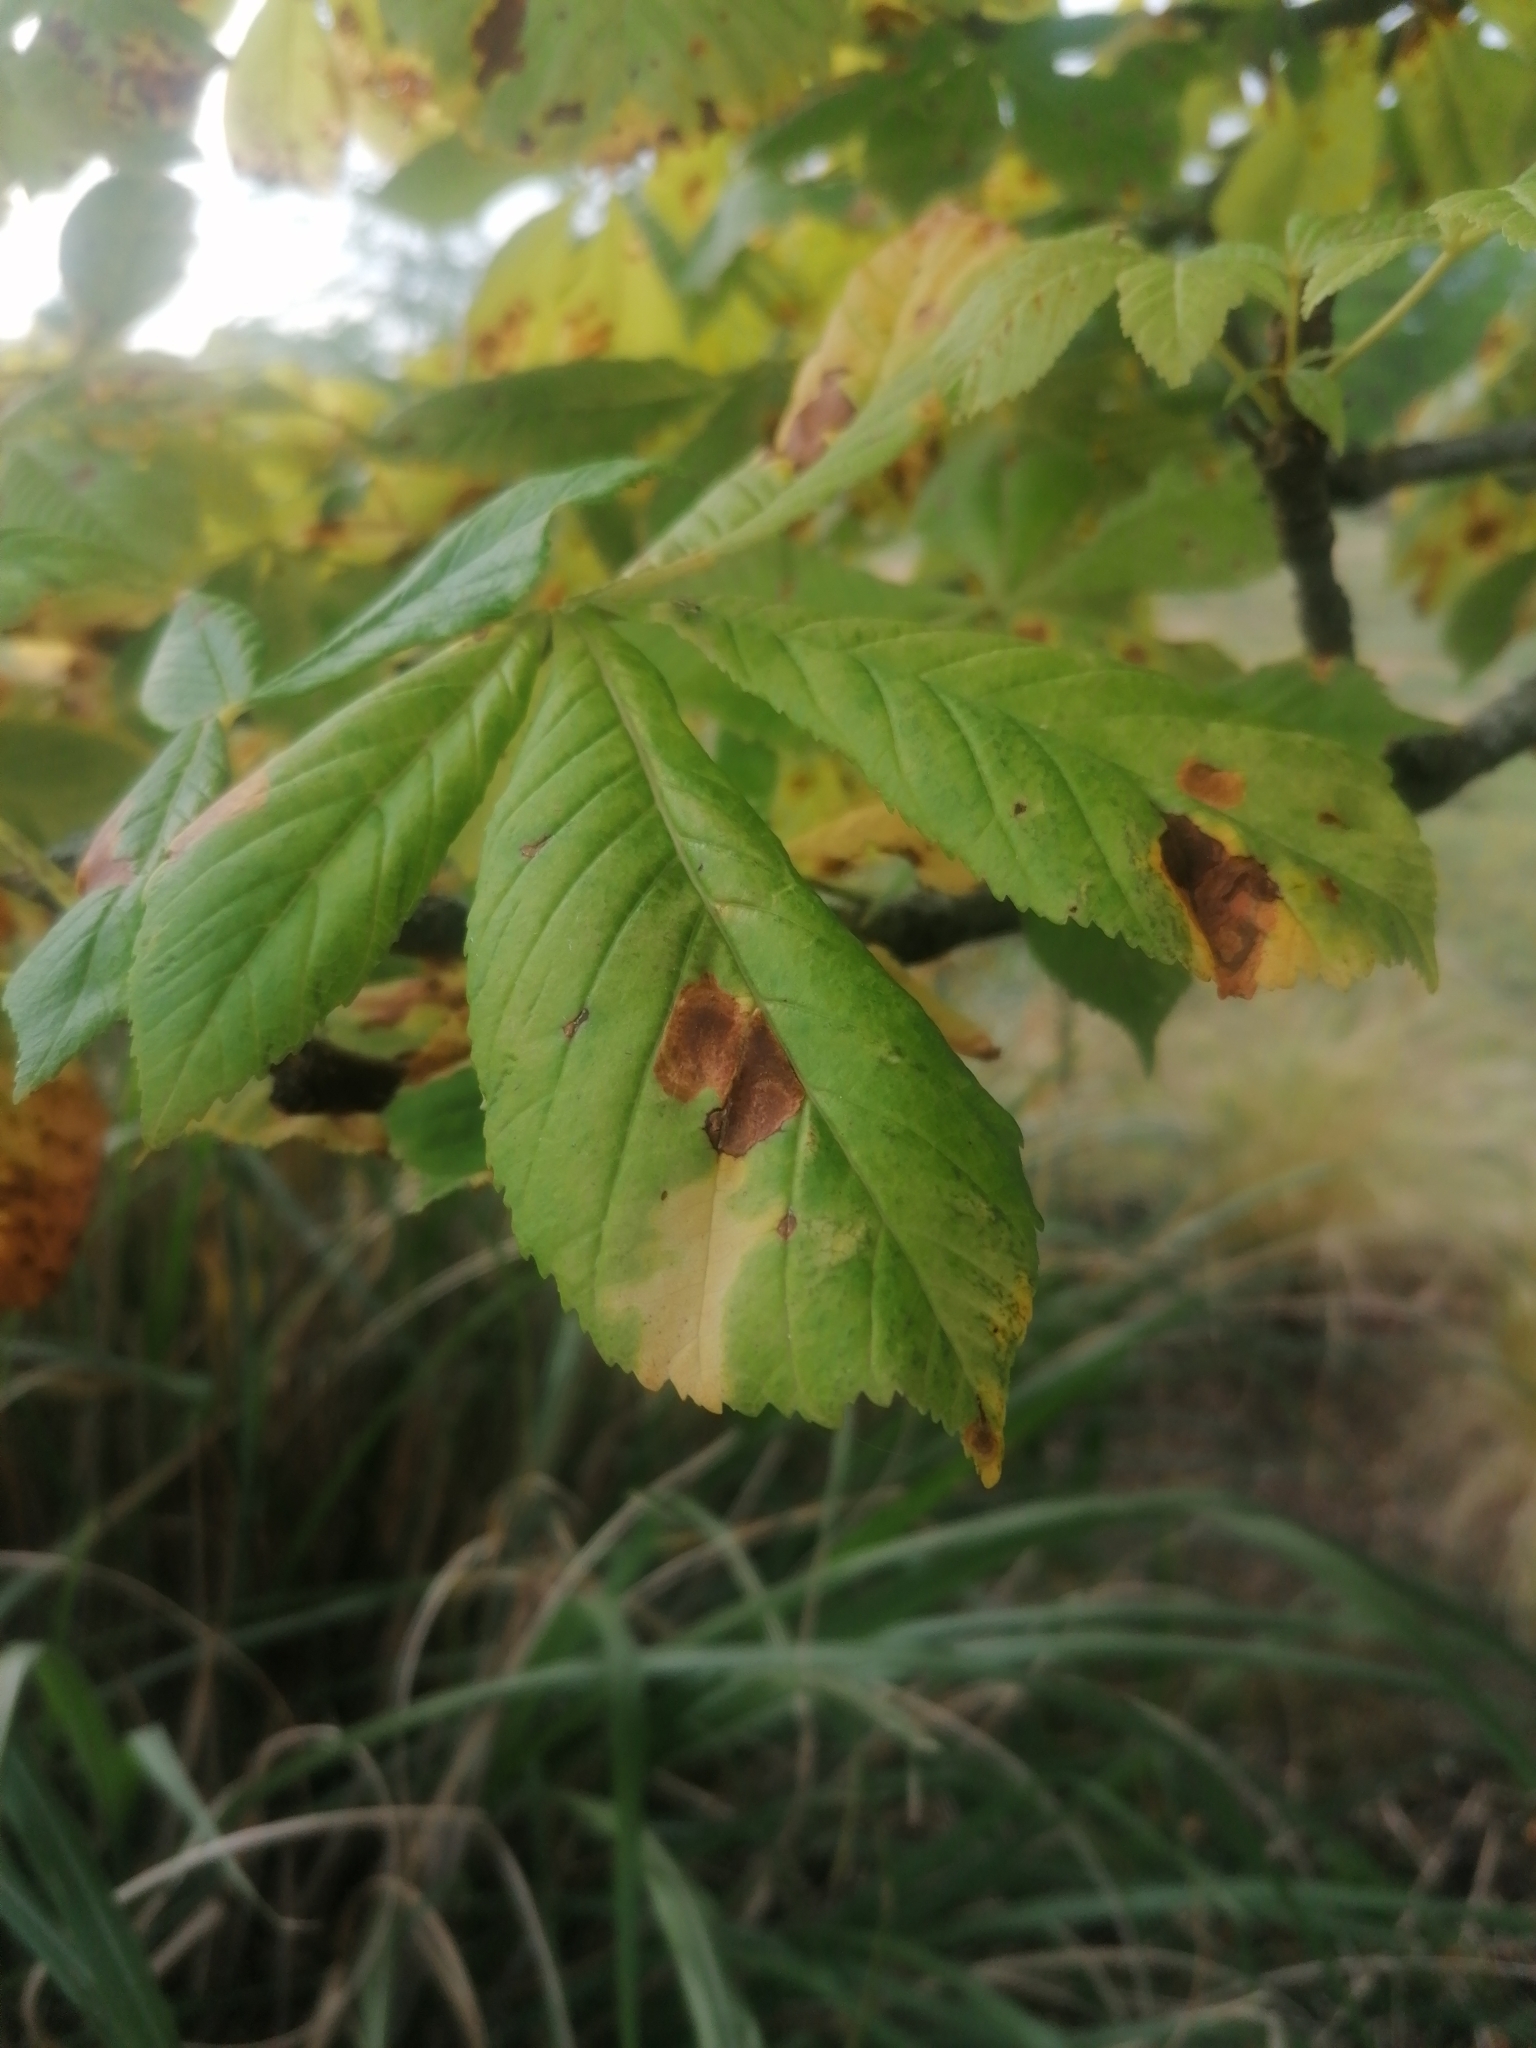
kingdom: Animalia
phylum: Arthropoda
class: Insecta
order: Lepidoptera
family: Gracillariidae
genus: Cameraria
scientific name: Cameraria ohridella
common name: Horse-chestnut leaf-miner
